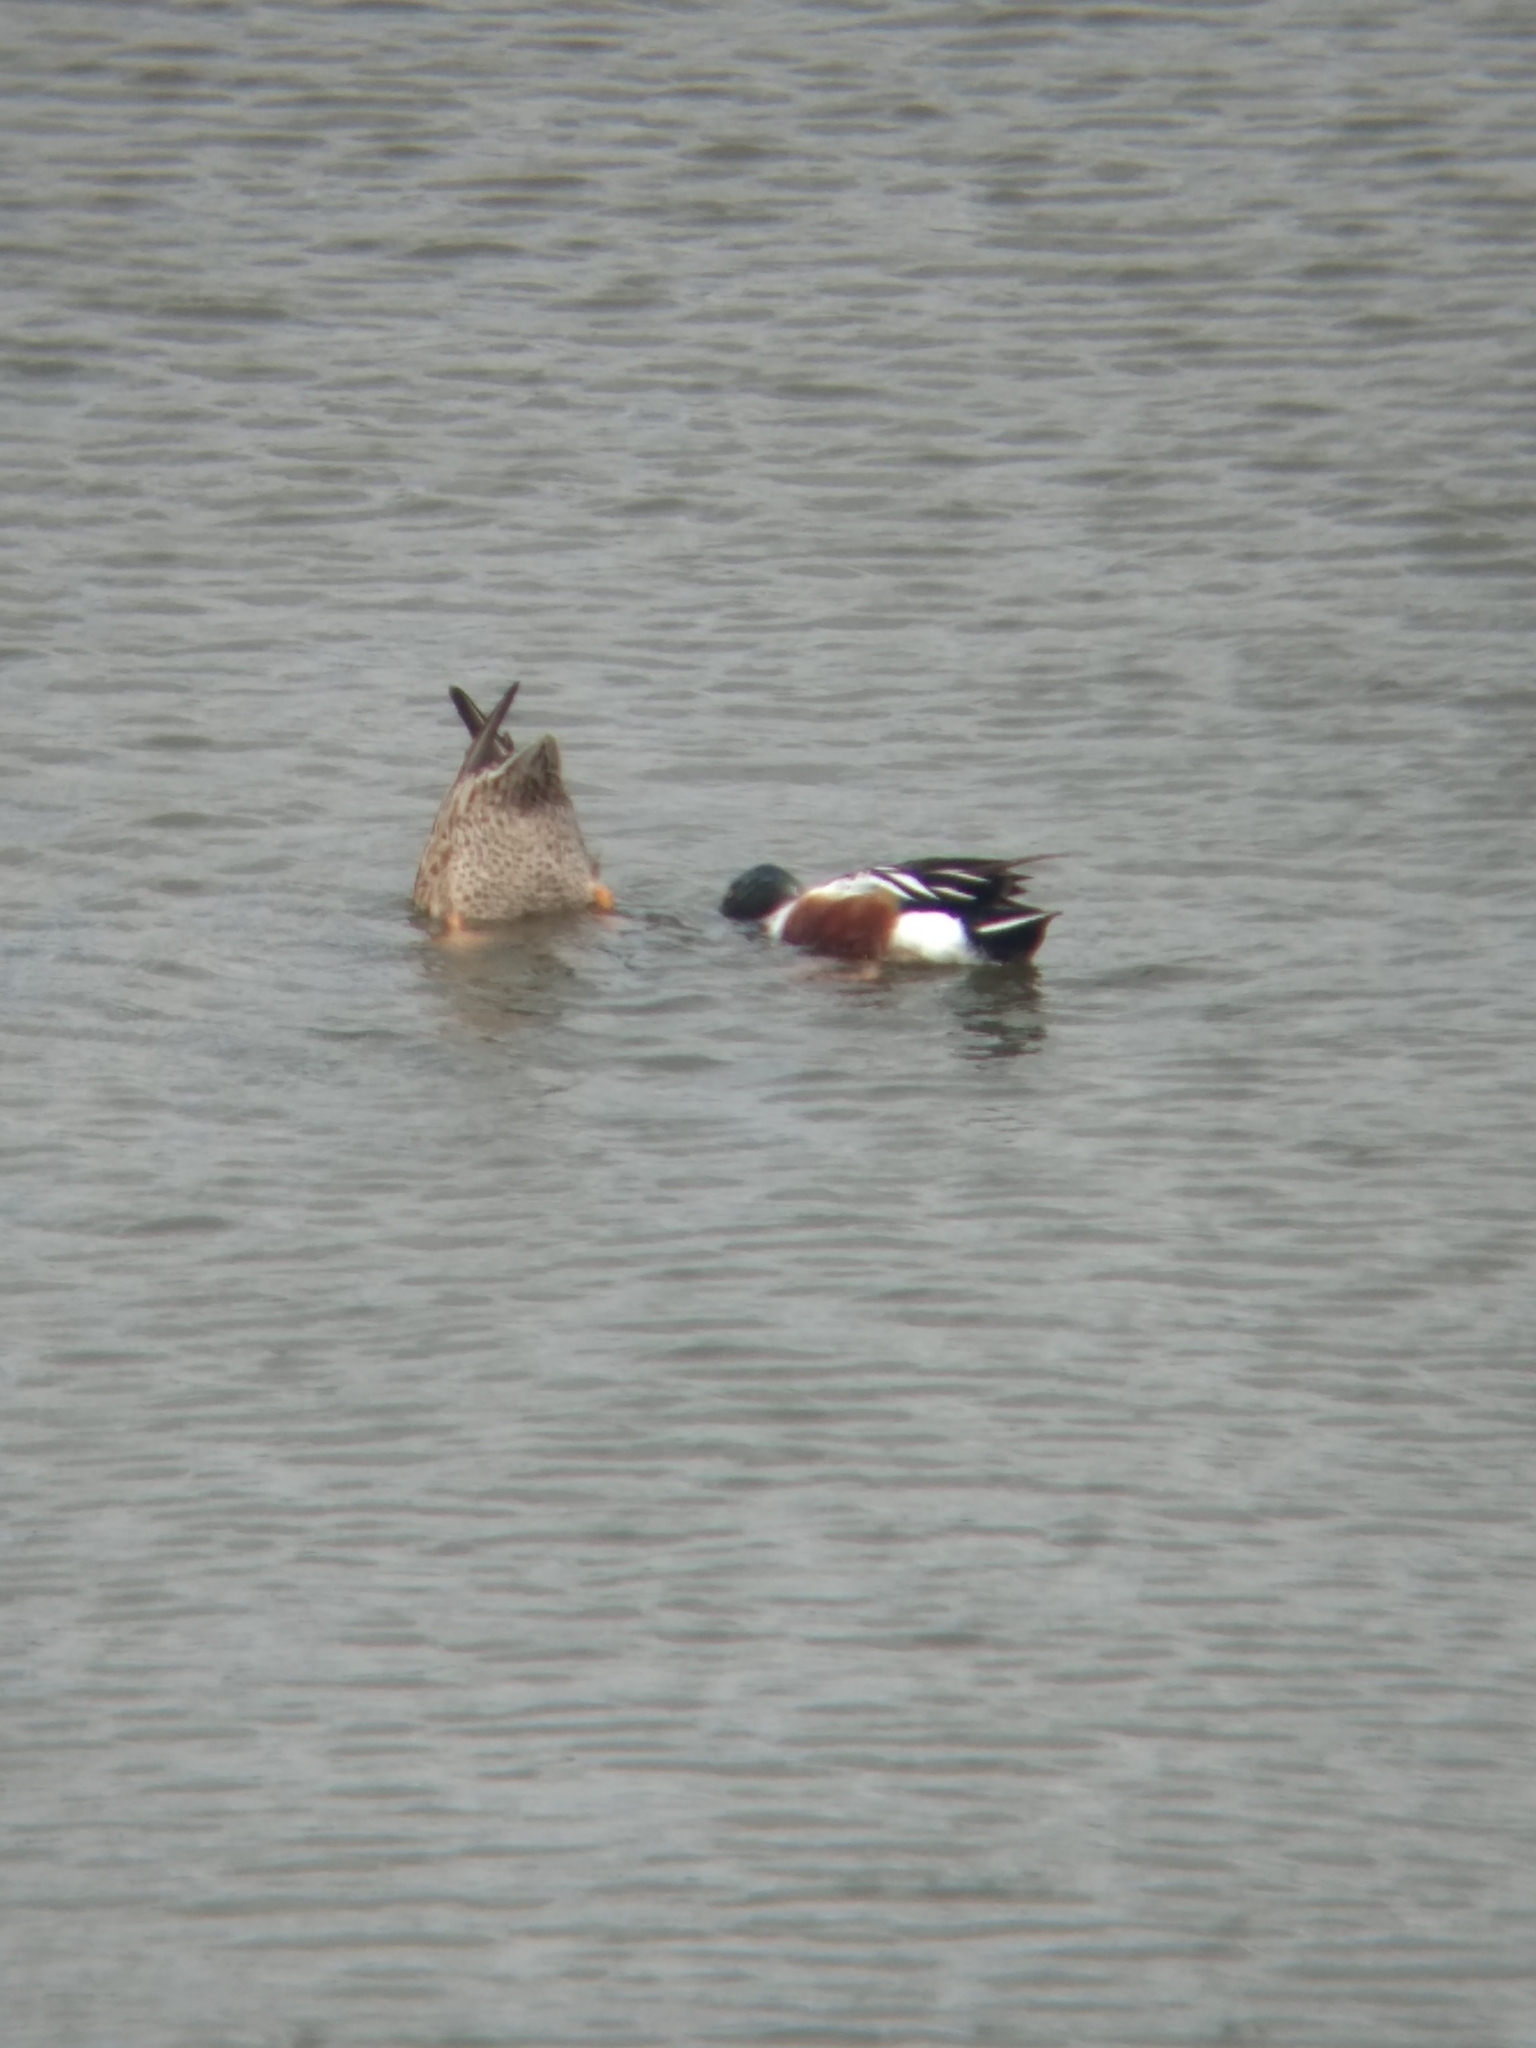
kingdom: Animalia
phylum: Chordata
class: Aves
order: Anseriformes
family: Anatidae
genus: Spatula
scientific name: Spatula clypeata
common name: Northern shoveler
